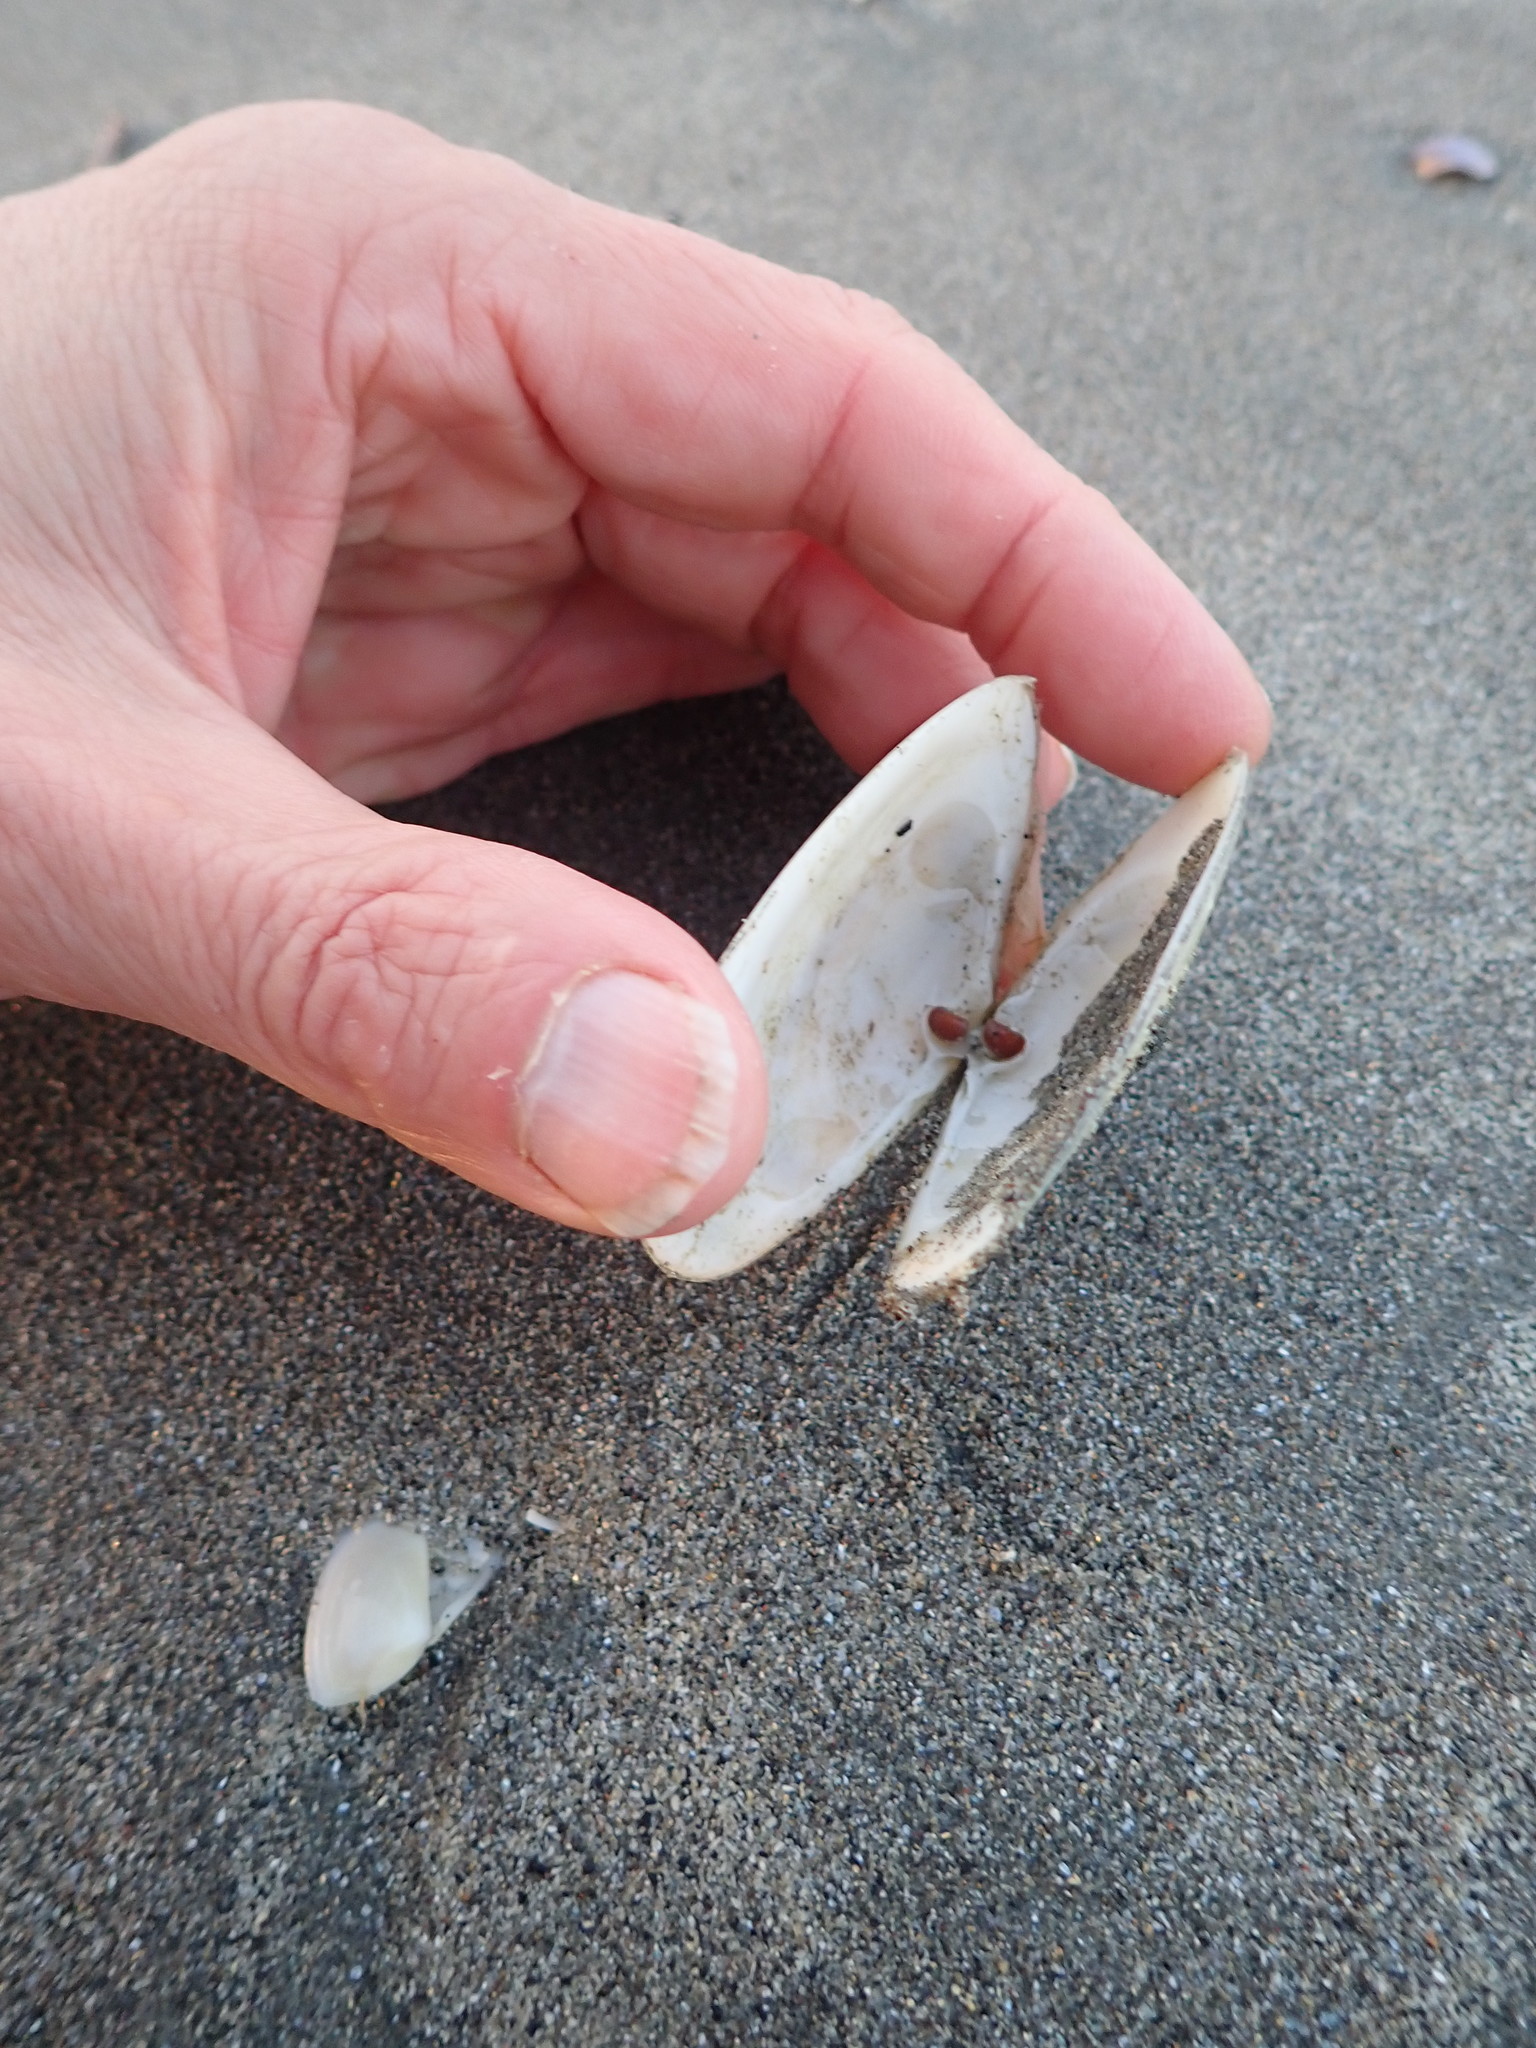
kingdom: Animalia
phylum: Mollusca
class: Bivalvia
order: Venerida
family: Mesodesmatidae
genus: Paphies
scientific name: Paphies donacina
